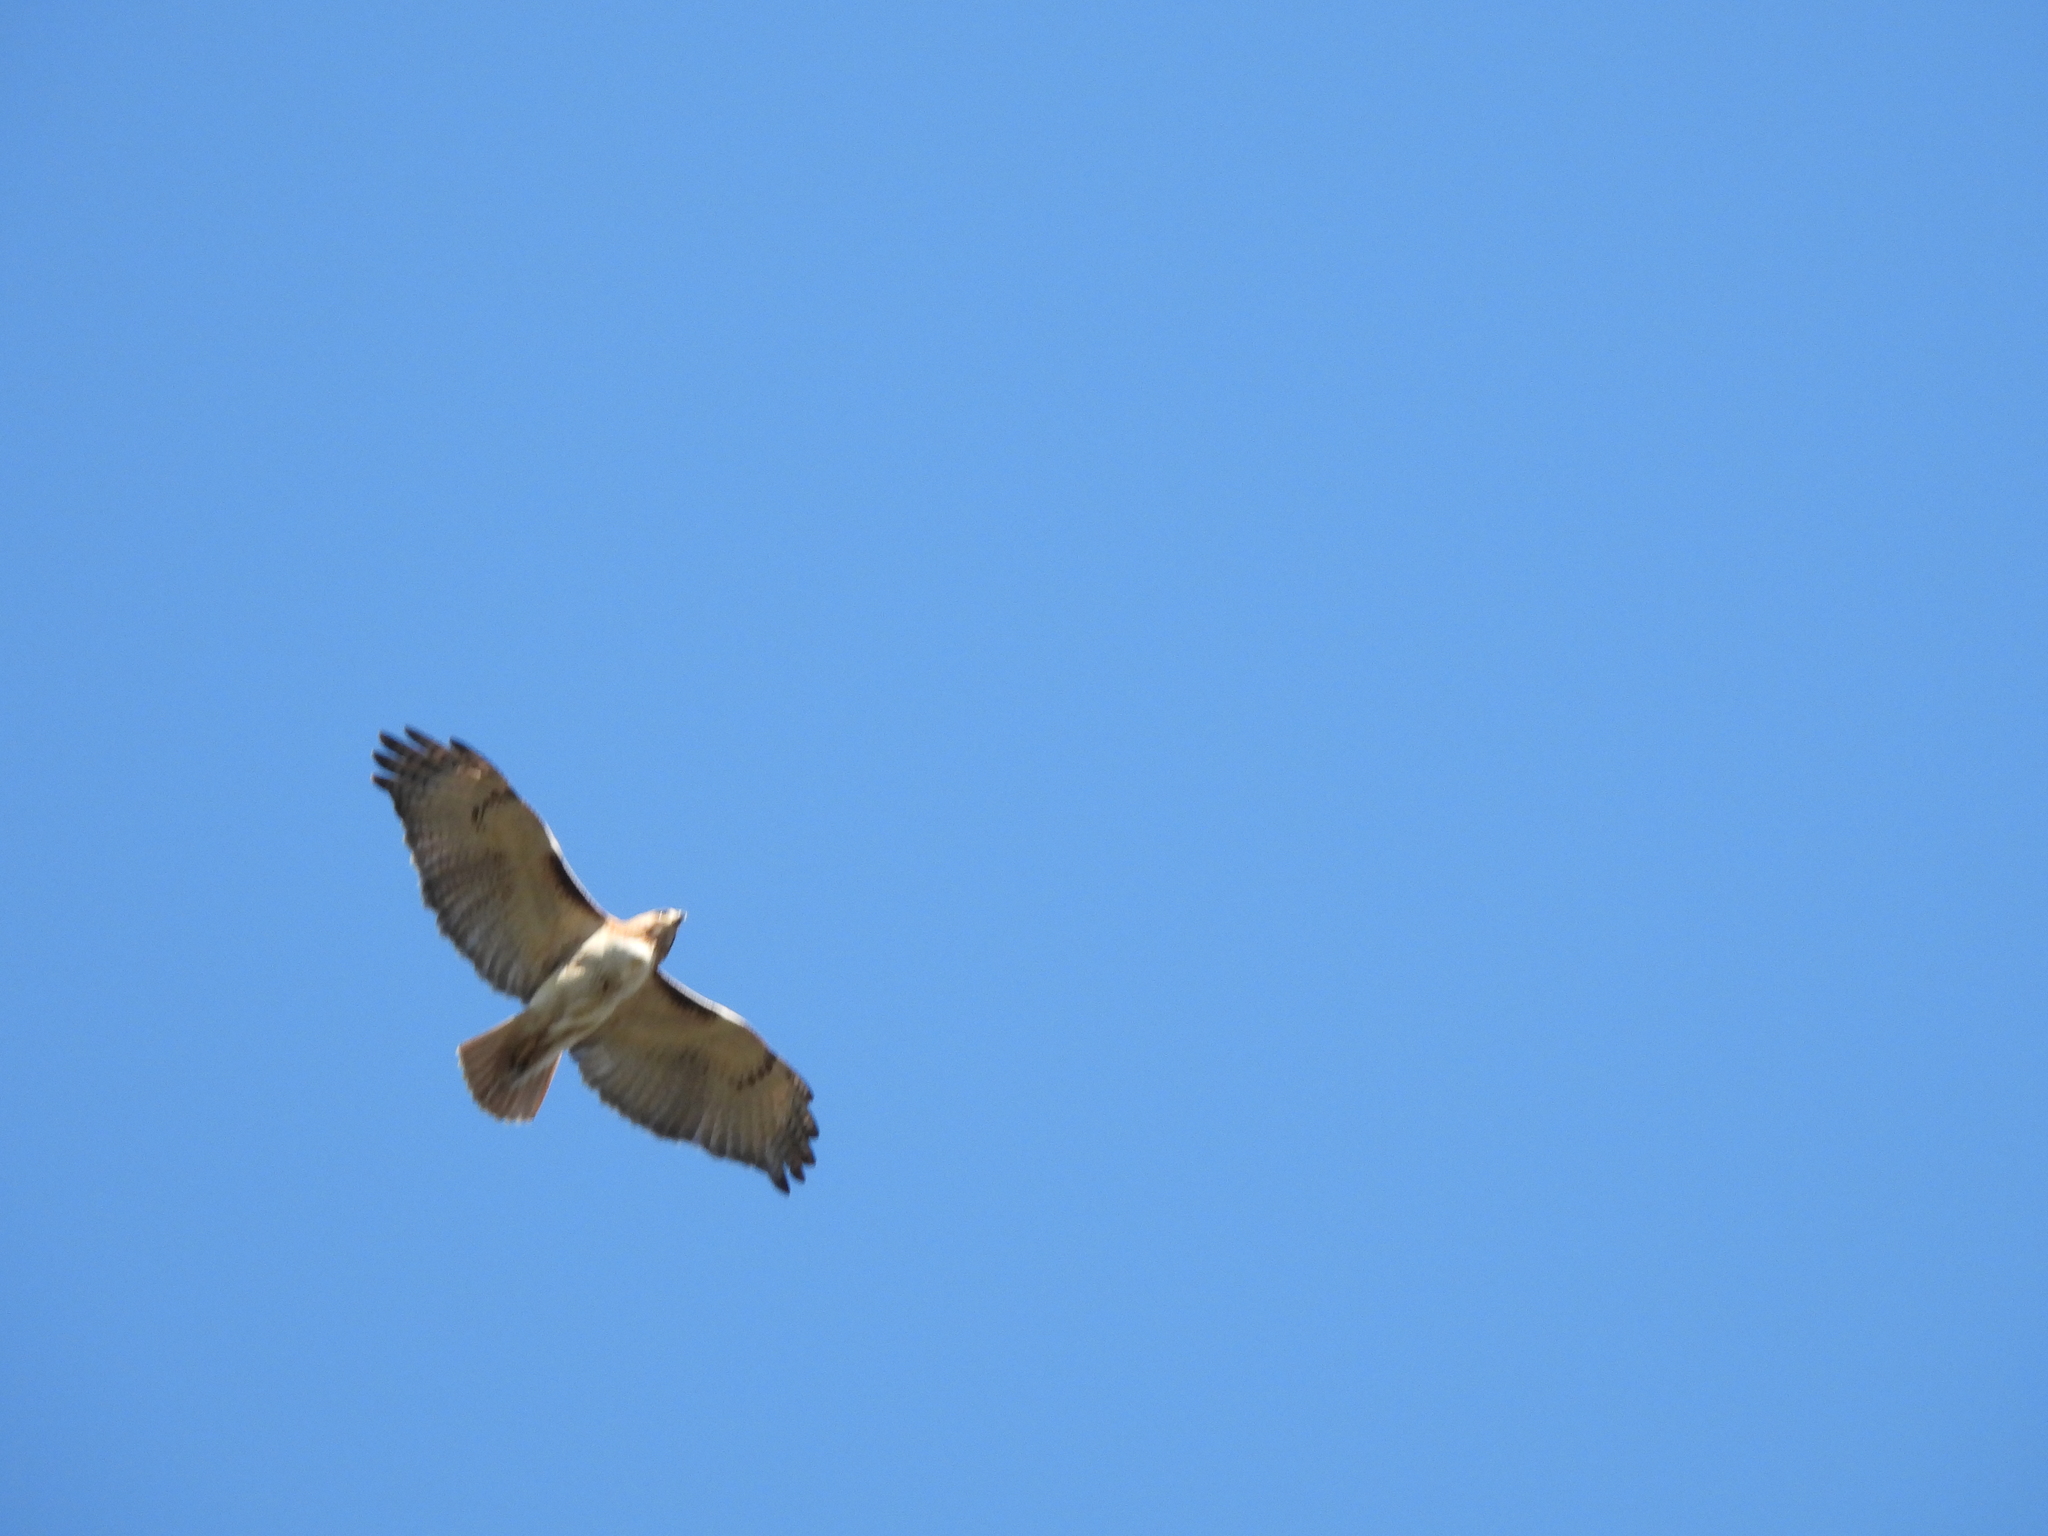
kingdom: Animalia
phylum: Chordata
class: Aves
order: Accipitriformes
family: Accipitridae
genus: Buteo
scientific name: Buteo jamaicensis
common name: Red-tailed hawk
